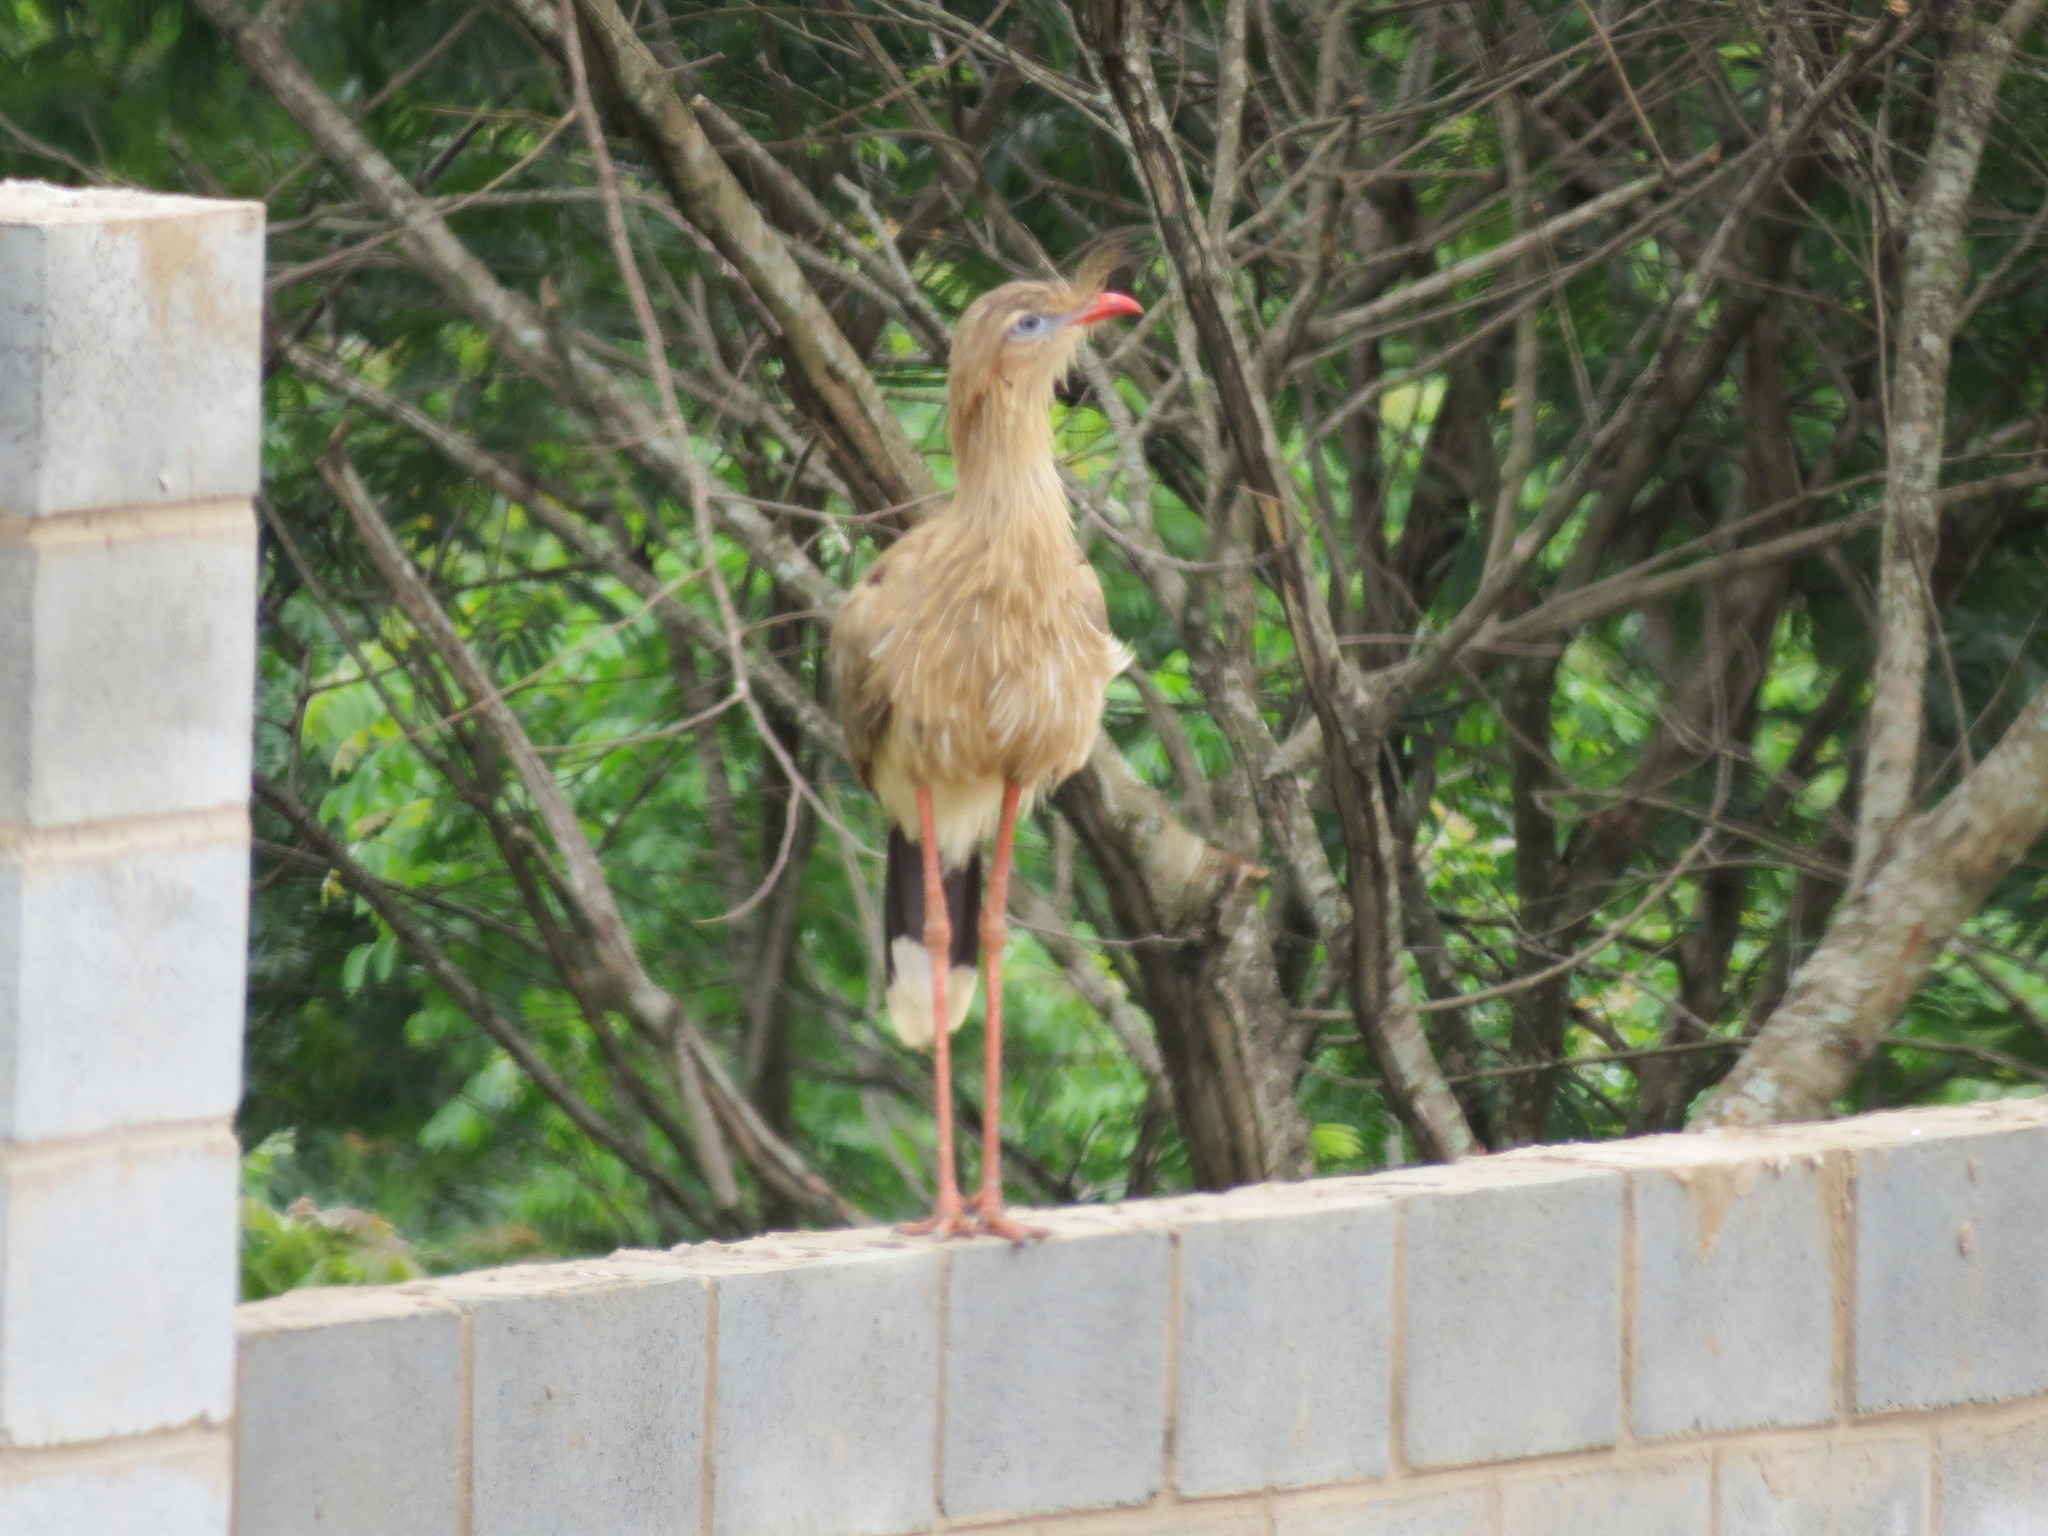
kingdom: Animalia
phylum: Chordata
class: Aves
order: Cariamiformes
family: Cariamidae
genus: Cariama
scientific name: Cariama cristata
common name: Red-legged seriema
